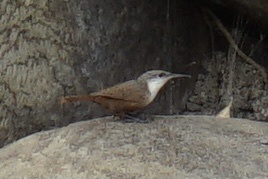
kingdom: Animalia
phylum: Chordata
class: Aves
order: Passeriformes
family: Troglodytidae
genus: Catherpes
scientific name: Catherpes mexicanus
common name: Canyon wren
